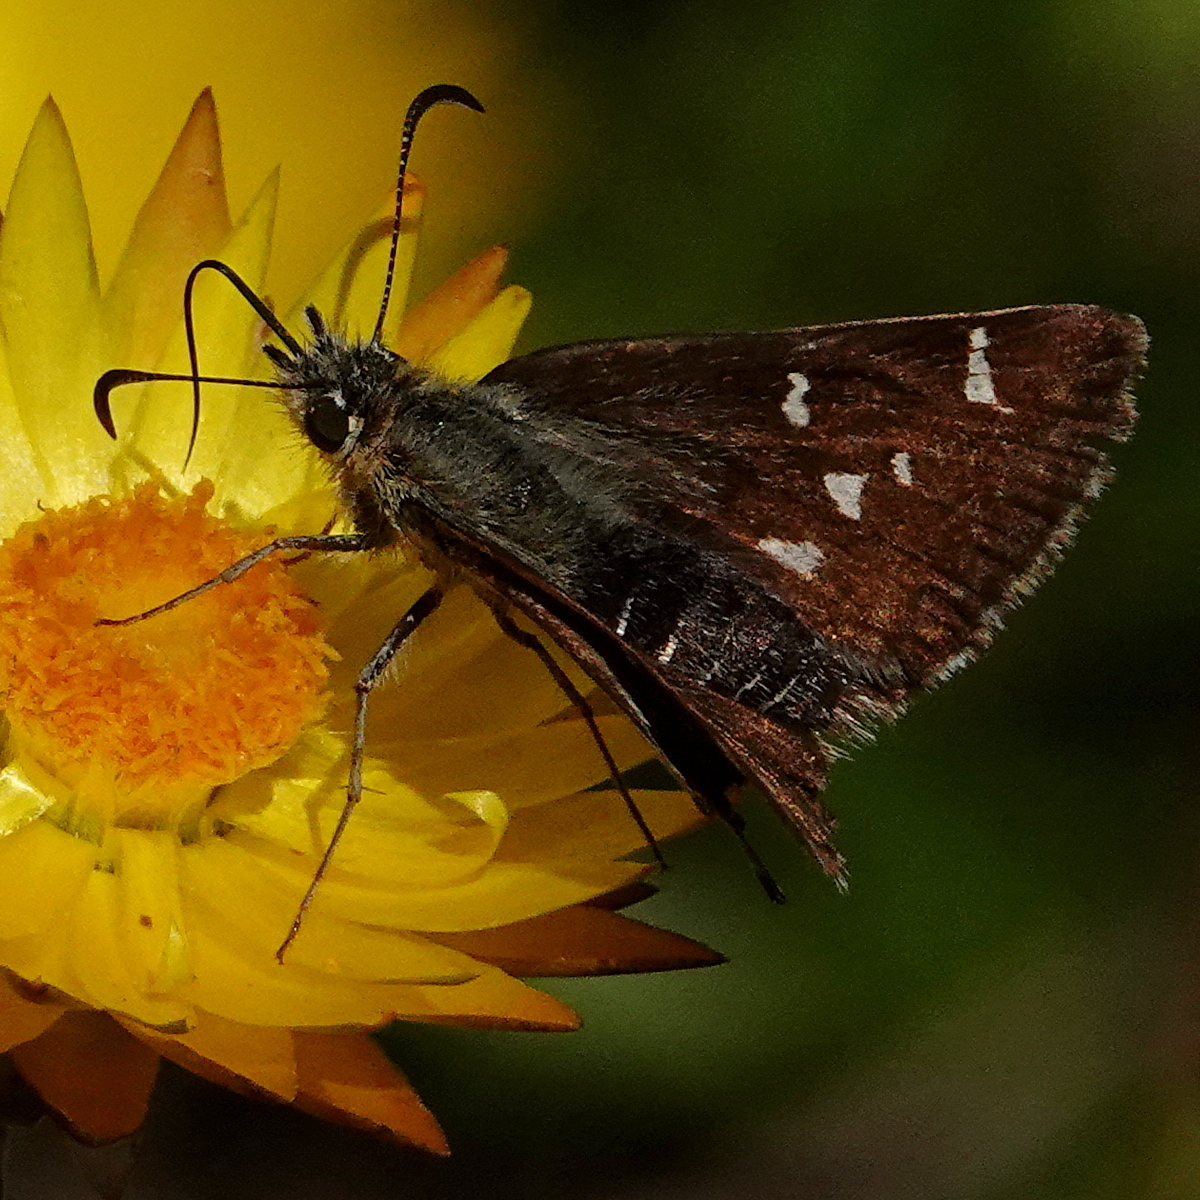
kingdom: Animalia
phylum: Arthropoda
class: Insecta
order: Lepidoptera
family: Hesperiidae
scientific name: Hesperiidae
